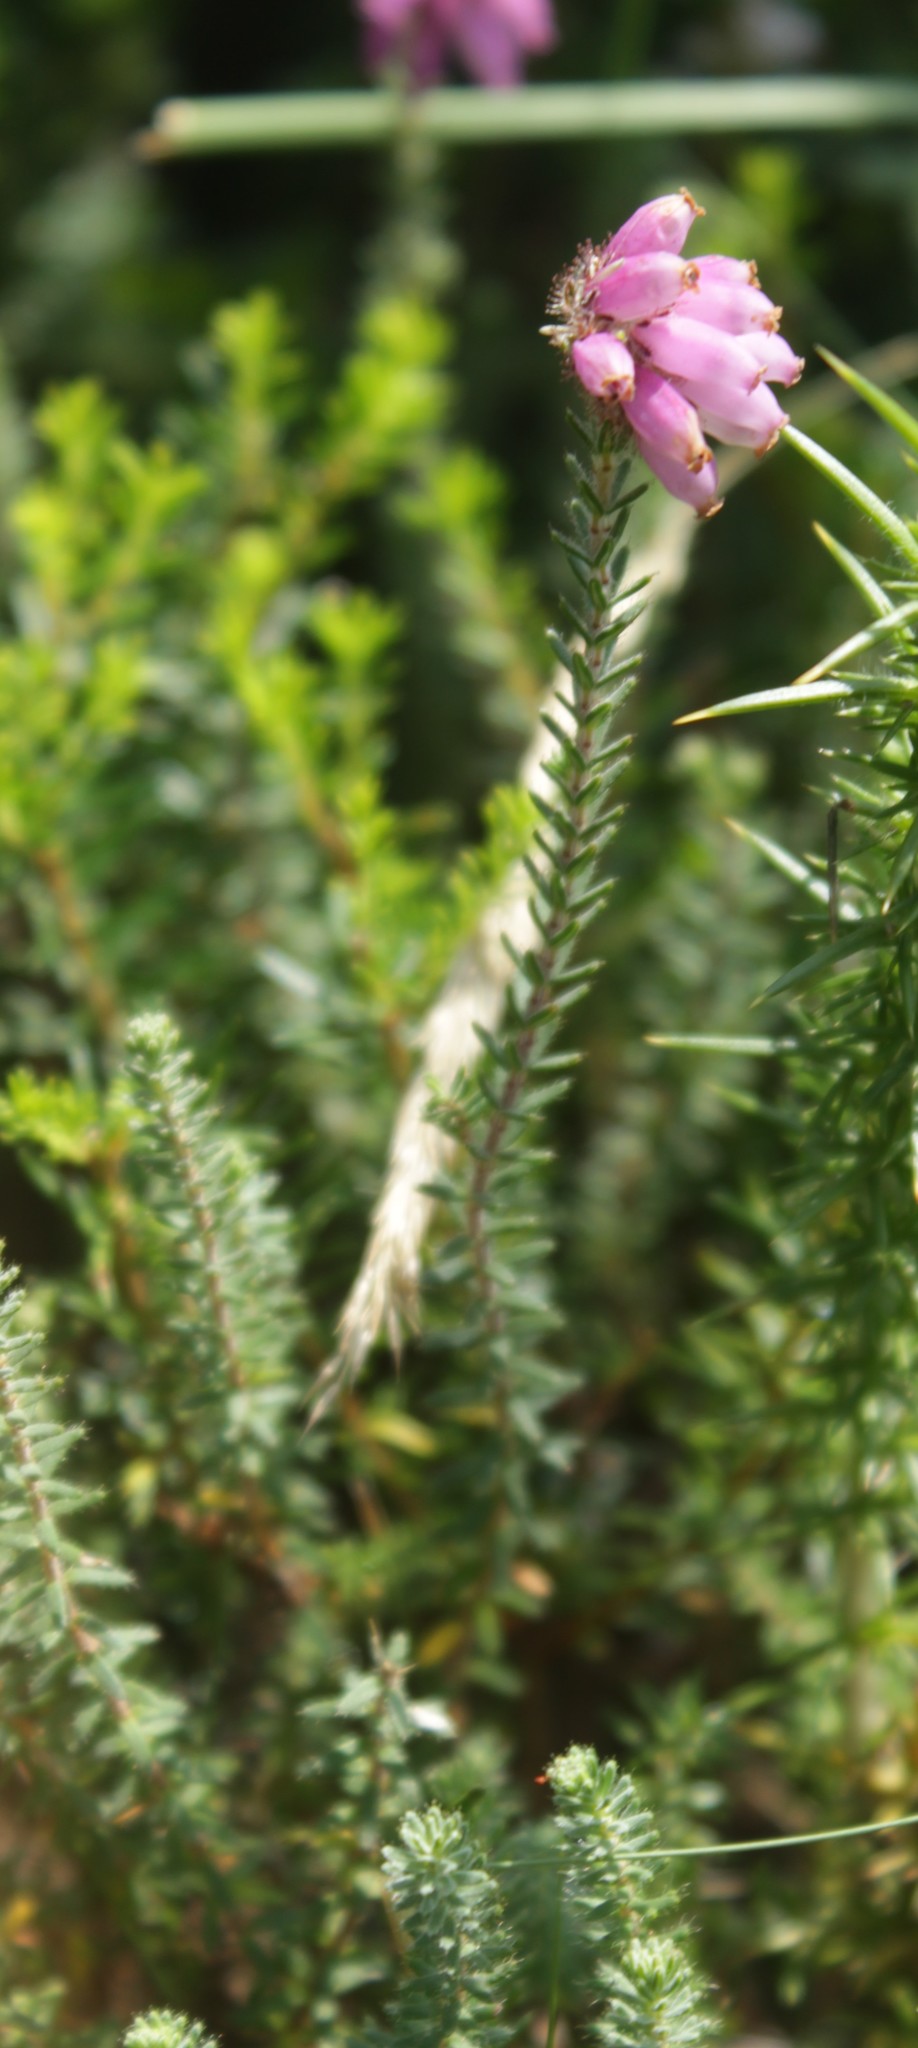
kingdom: Plantae
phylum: Tracheophyta
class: Magnoliopsida
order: Ericales
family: Ericaceae
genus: Erica
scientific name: Erica tetralix
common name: Cross-leaved heath
